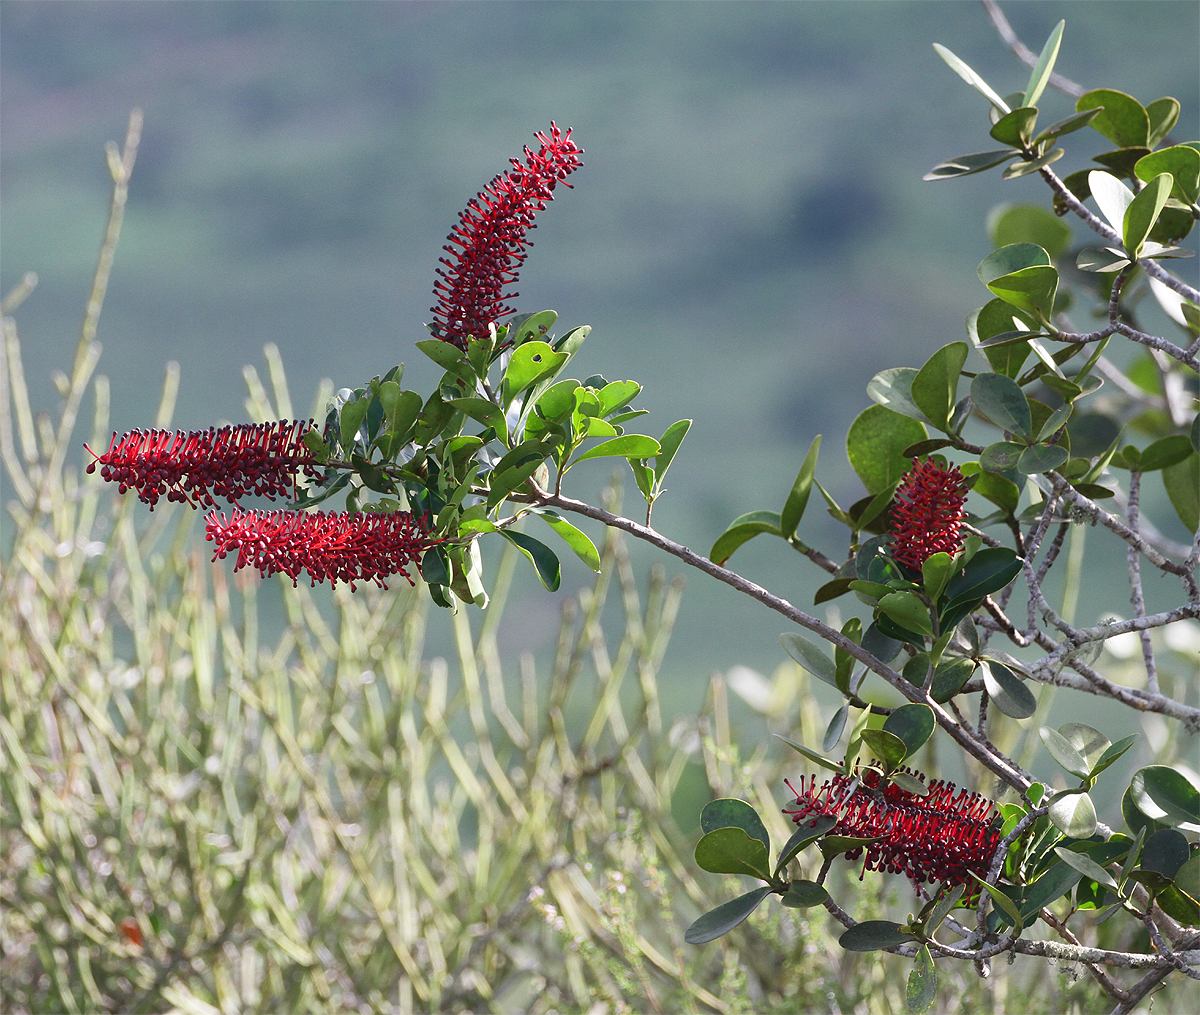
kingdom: Plantae
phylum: Tracheophyta
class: Magnoliopsida
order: Ericales
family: Marcgraviaceae
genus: Schwartzia
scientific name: Schwartzia brasiliensis
